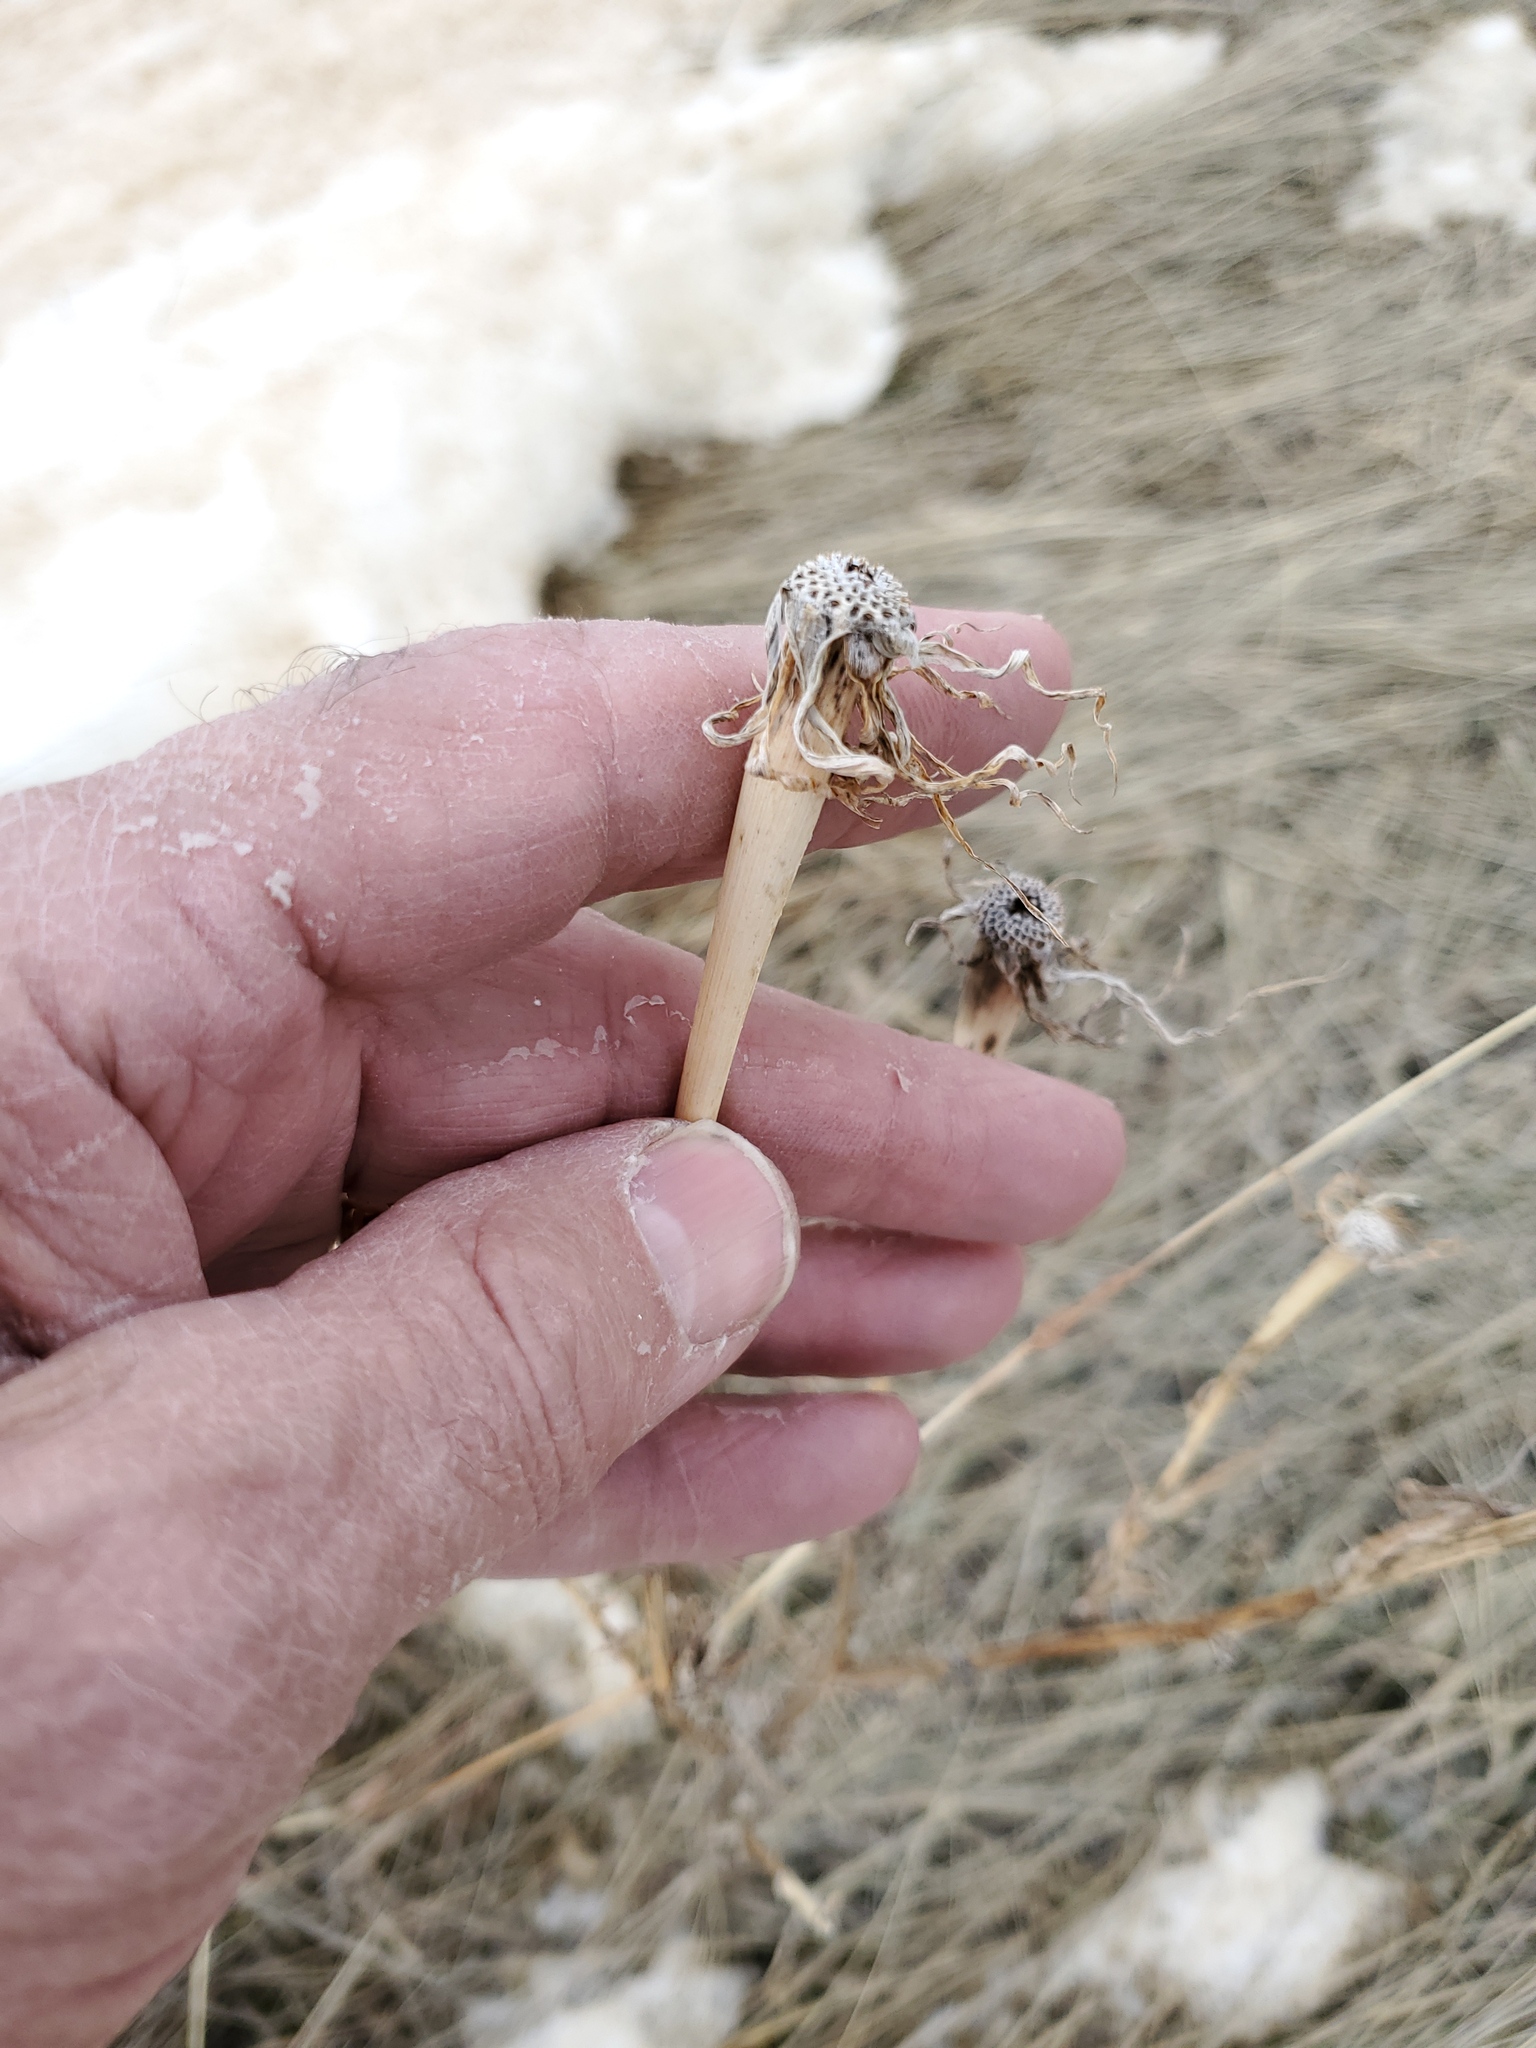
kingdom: Plantae
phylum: Tracheophyta
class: Magnoliopsida
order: Asterales
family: Asteraceae
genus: Tragopogon
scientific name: Tragopogon dubius
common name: Yellow salsify
